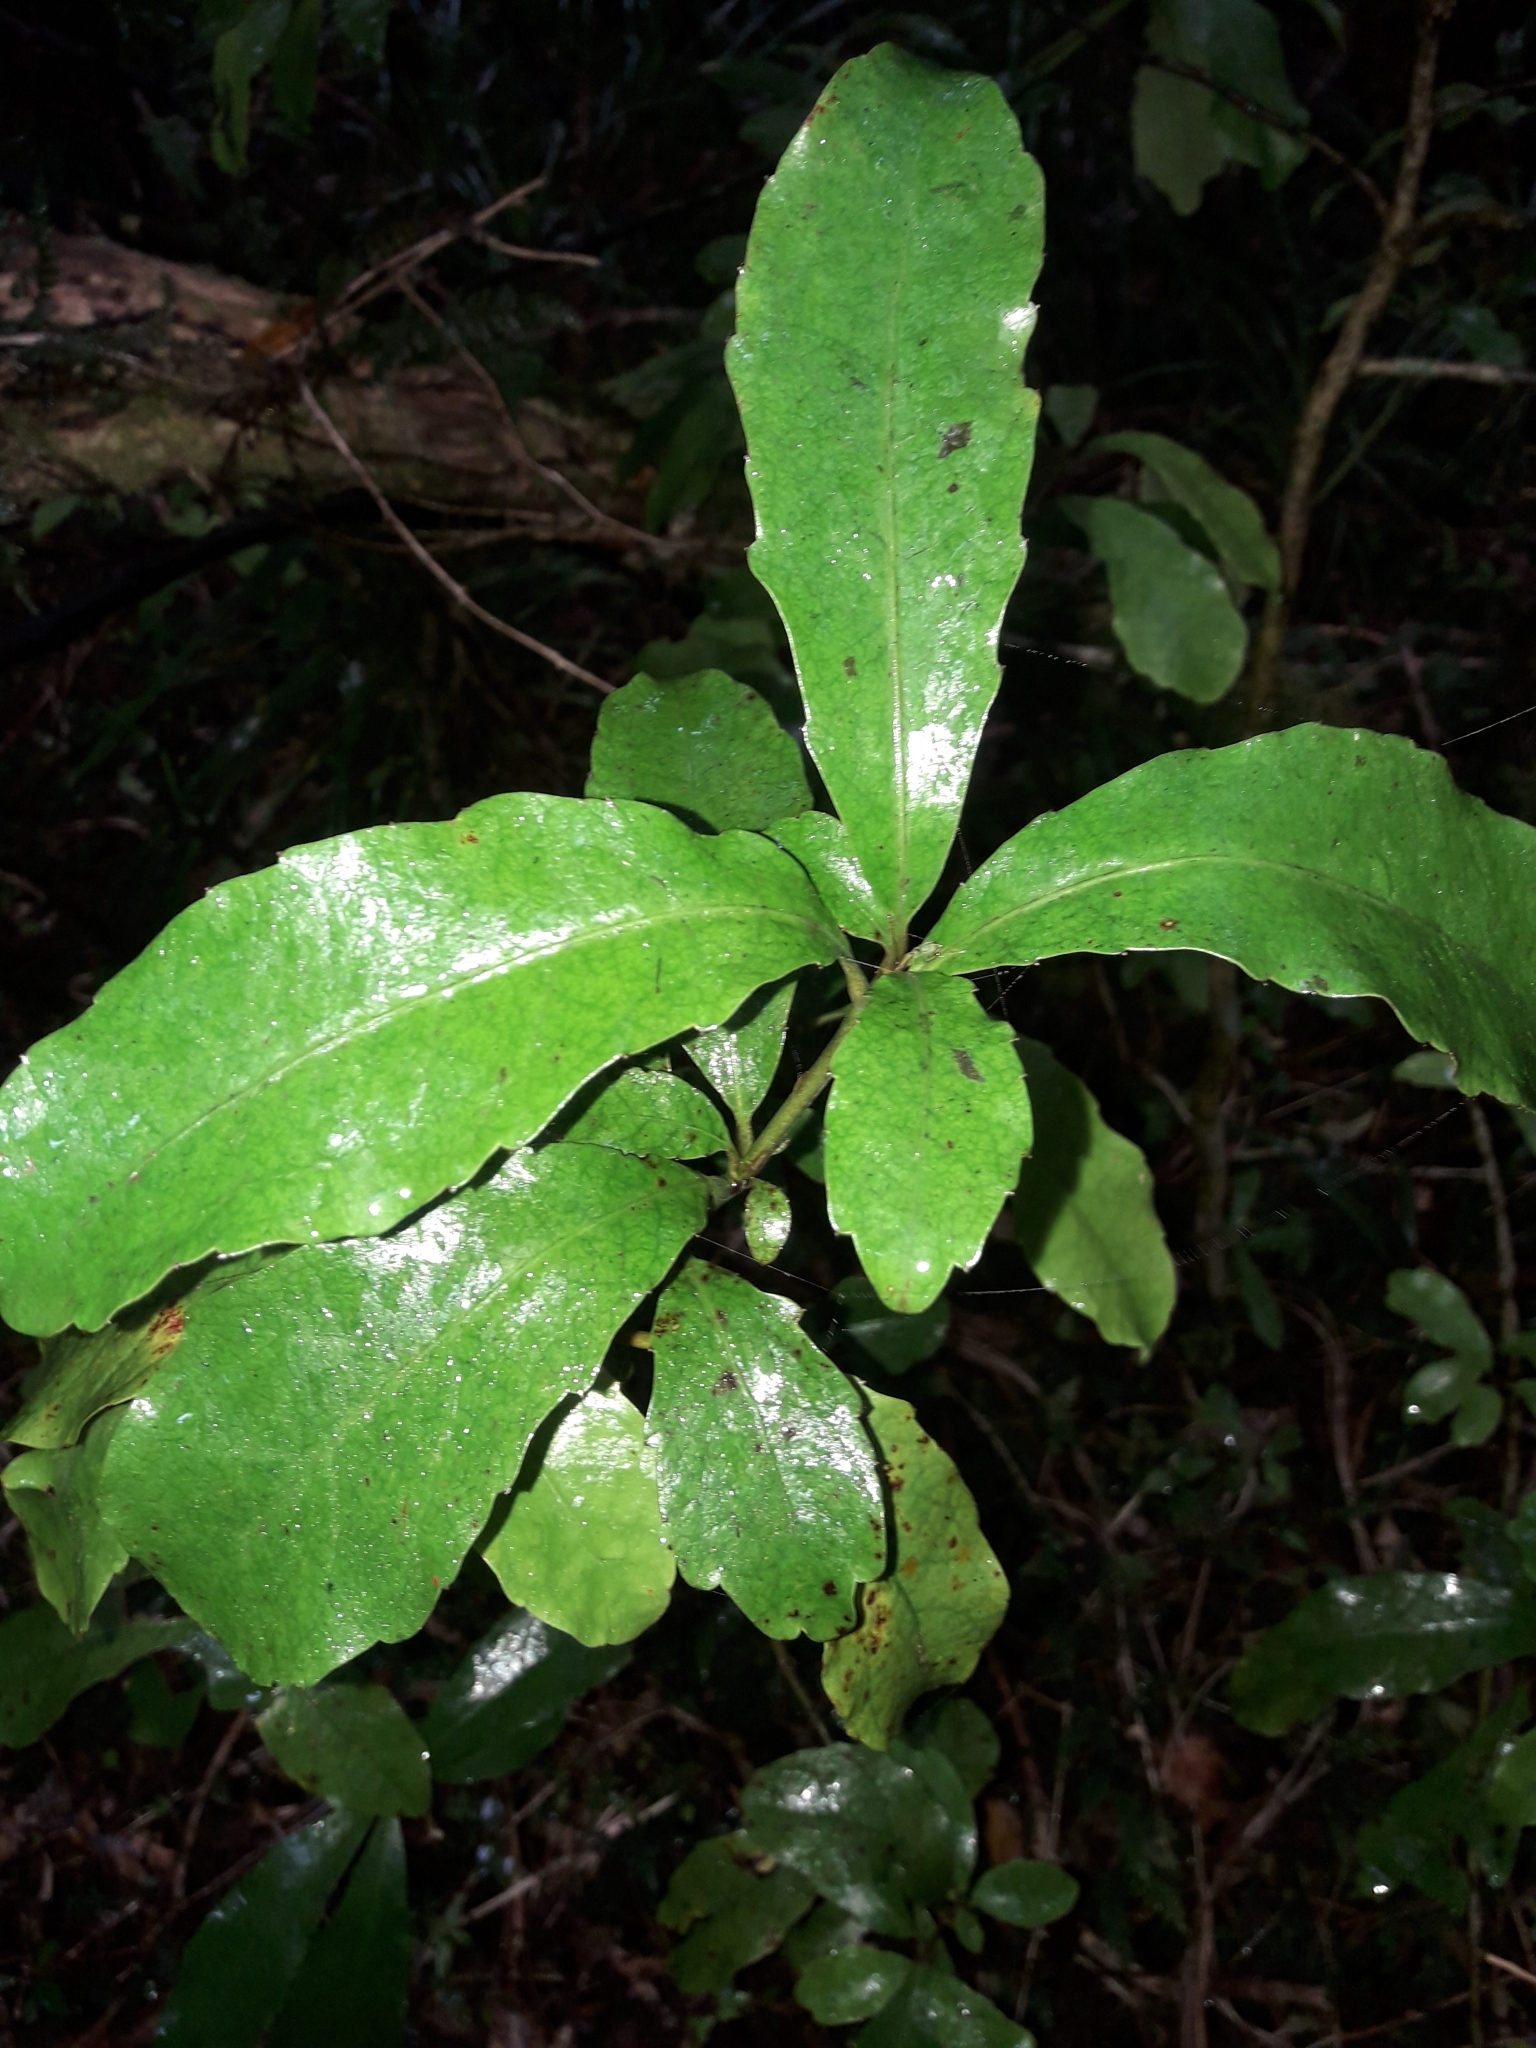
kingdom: Plantae
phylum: Tracheophyta
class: Magnoliopsida
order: Asterales
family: Alseuosmiaceae
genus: Alseuosmia
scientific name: Alseuosmia macrophylla
